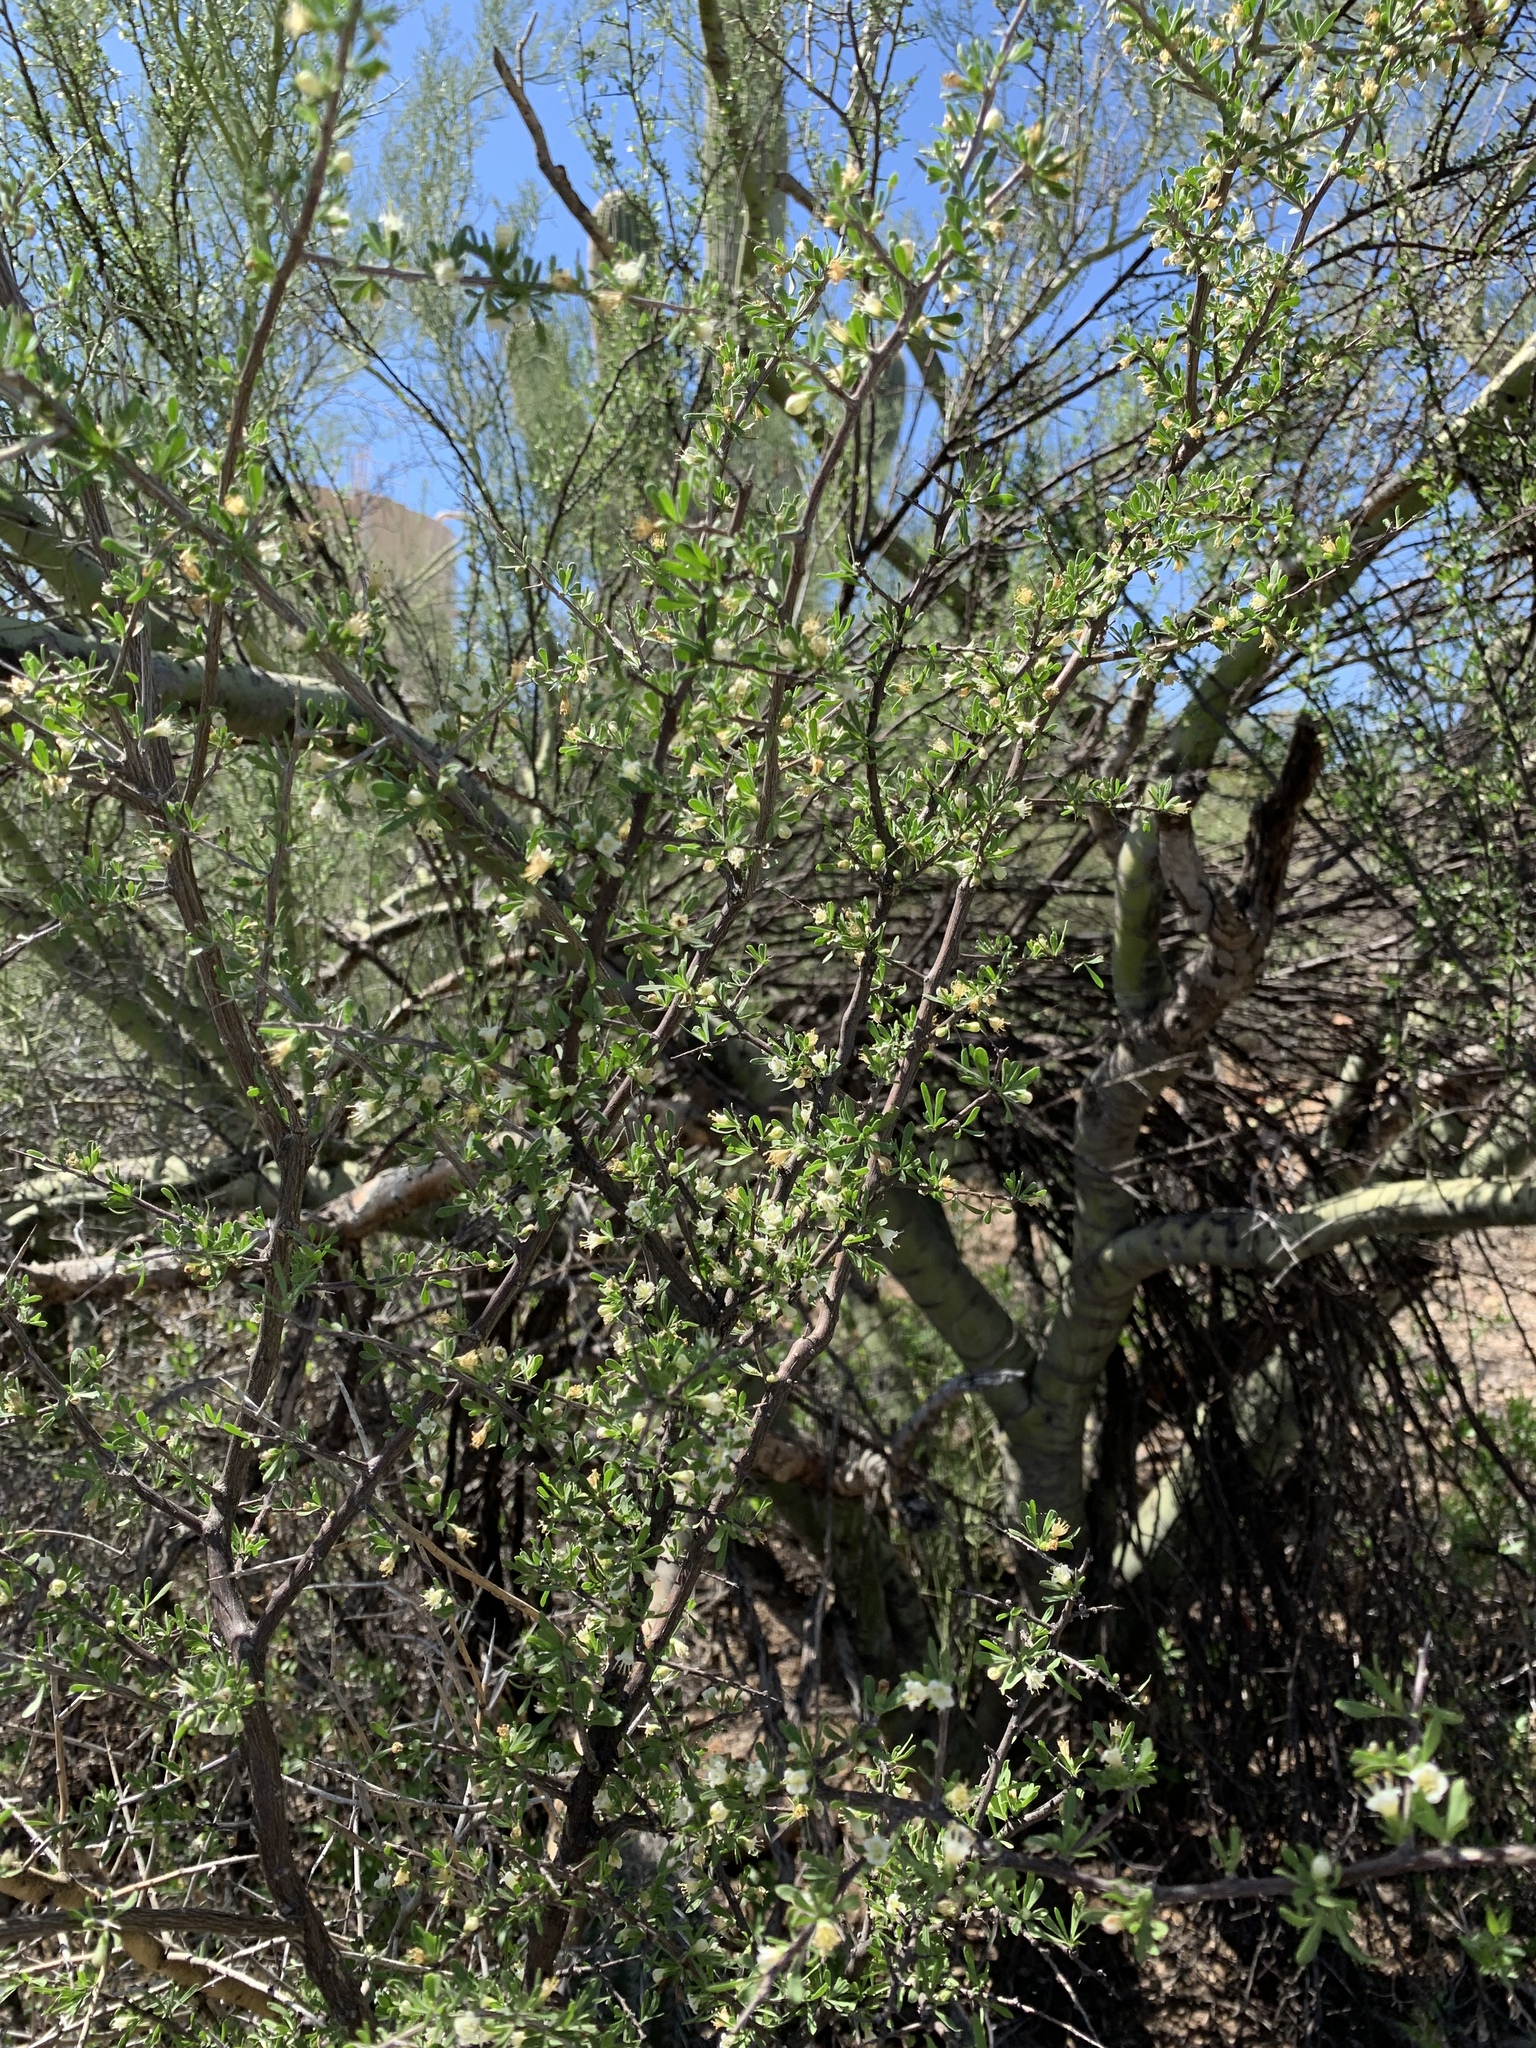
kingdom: Plantae
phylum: Tracheophyta
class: Magnoliopsida
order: Solanales
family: Solanaceae
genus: Lycium
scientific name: Lycium berlandieri
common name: Berlandier wolfberry
